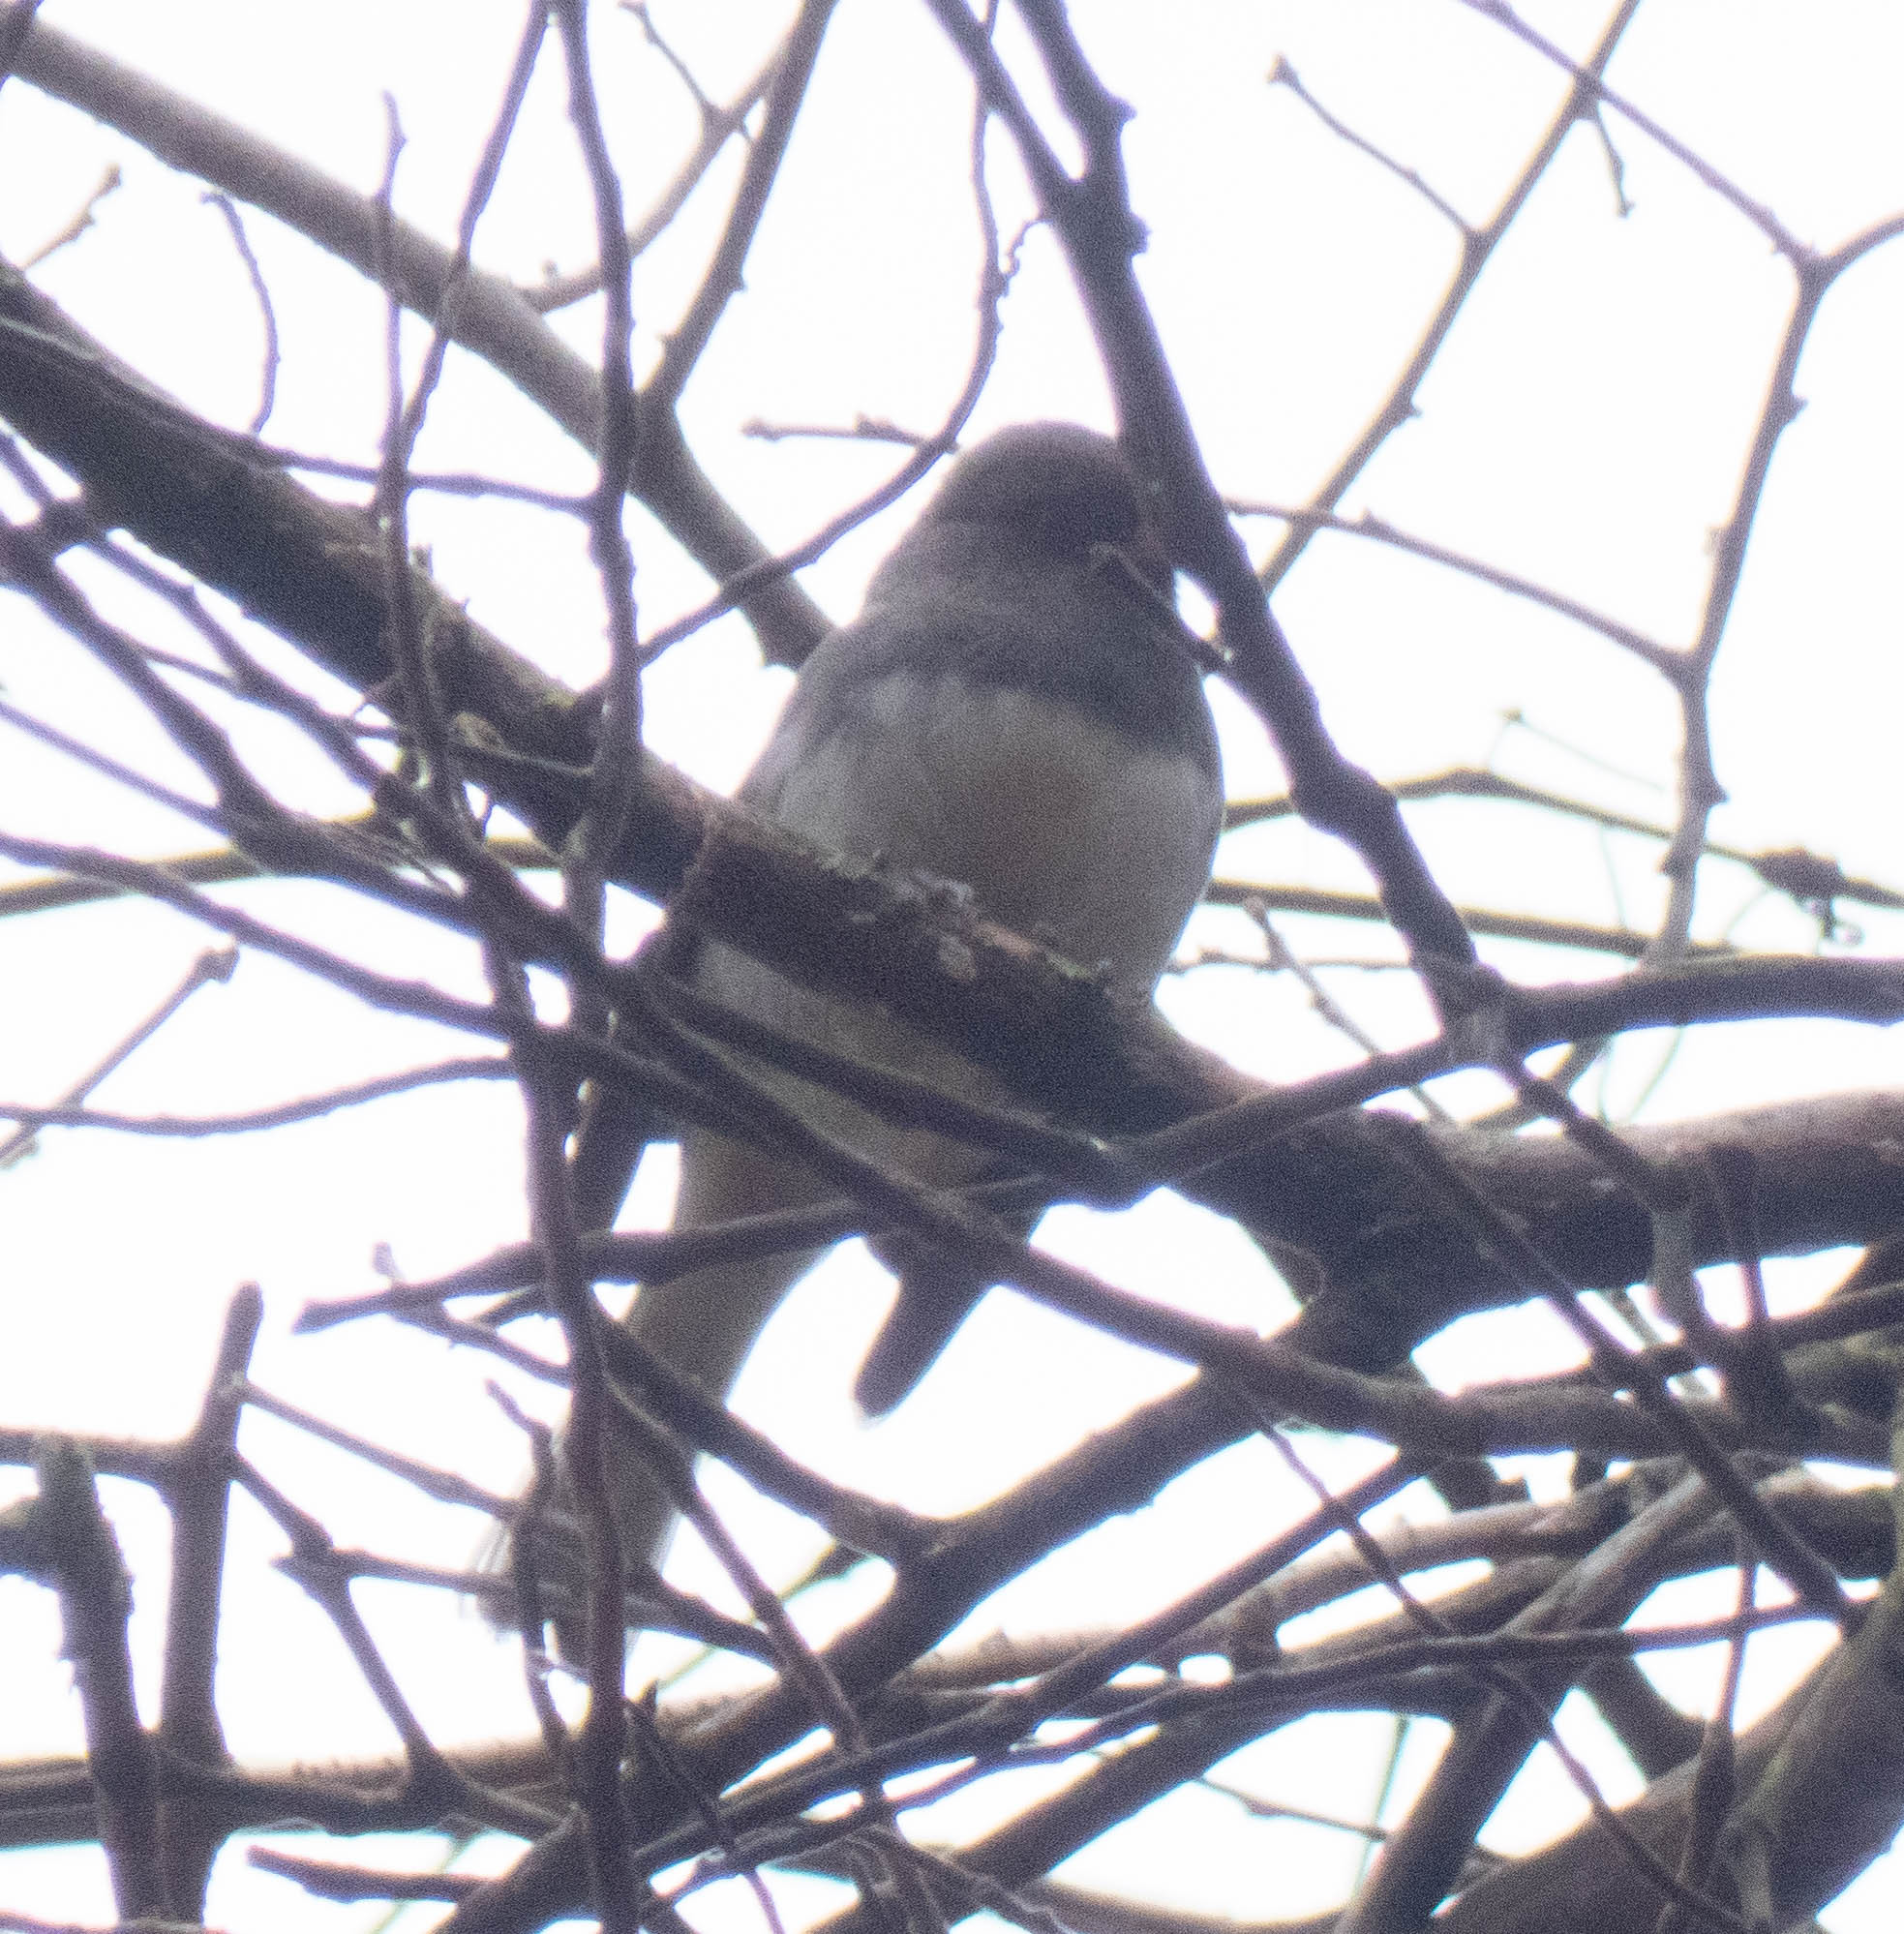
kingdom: Animalia
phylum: Chordata
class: Aves
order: Passeriformes
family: Passerellidae
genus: Junco
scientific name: Junco hyemalis
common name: Dark-eyed junco
